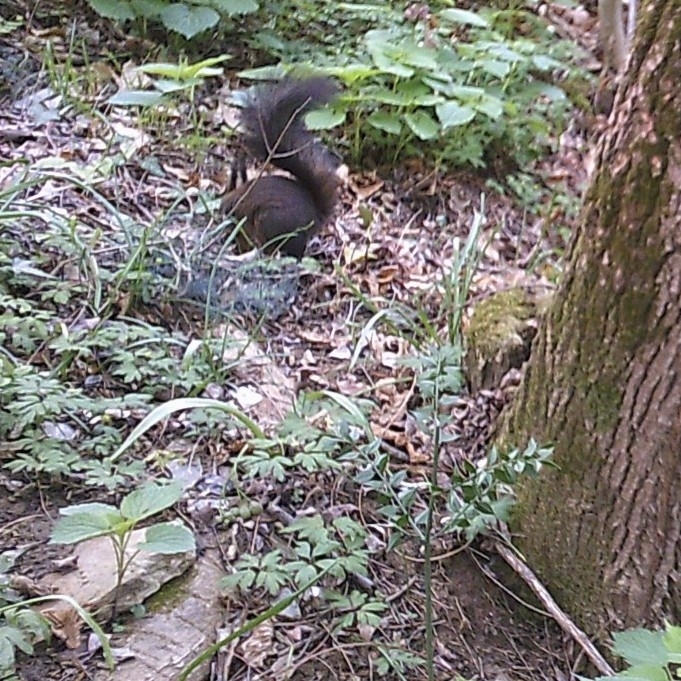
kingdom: Animalia
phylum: Chordata
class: Mammalia
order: Rodentia
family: Sciuridae
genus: Sciurus
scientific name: Sciurus vulgaris
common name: Eurasian red squirrel
